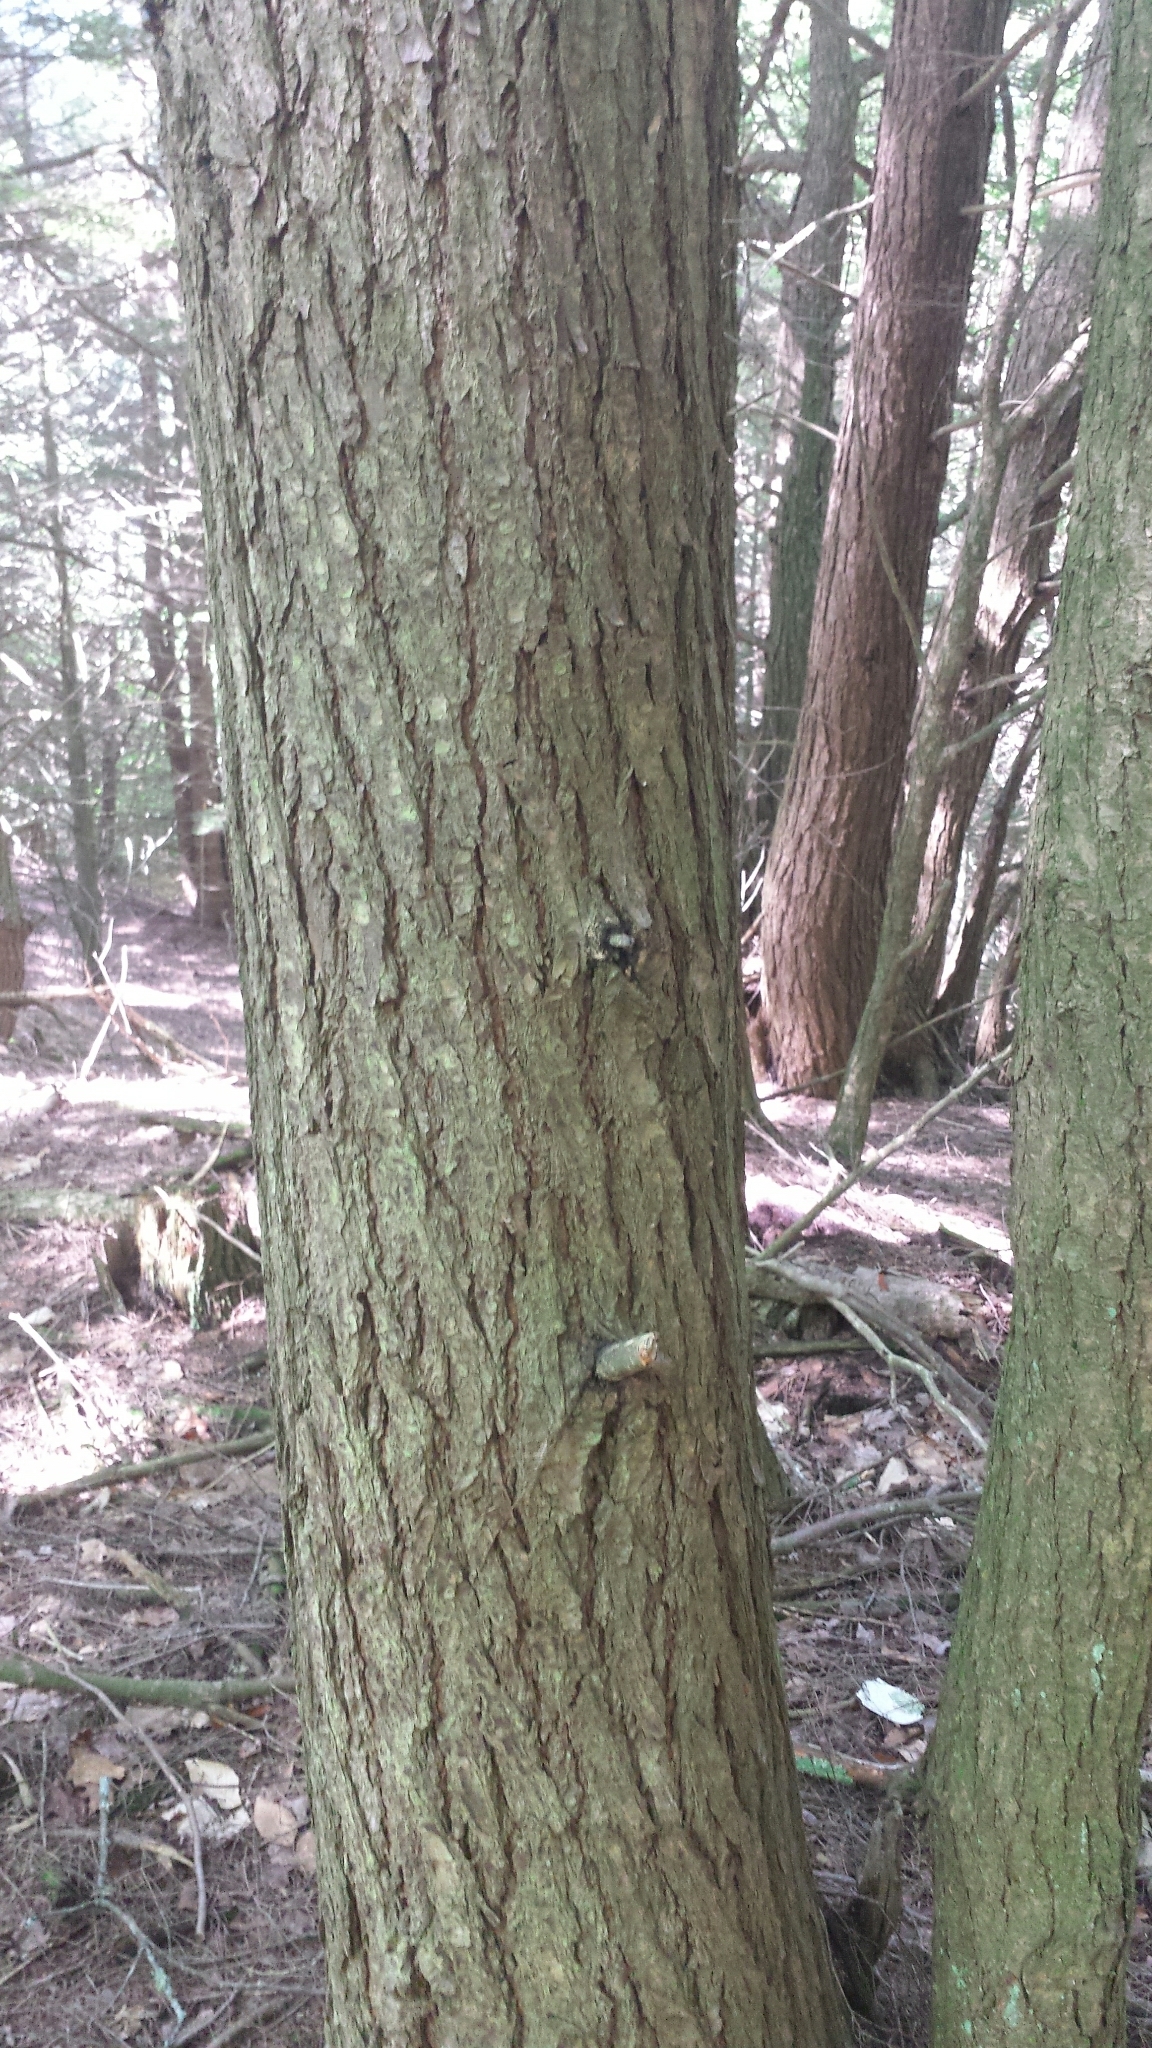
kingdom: Plantae
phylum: Tracheophyta
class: Pinopsida
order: Pinales
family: Pinaceae
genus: Tsuga
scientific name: Tsuga canadensis
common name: Eastern hemlock
